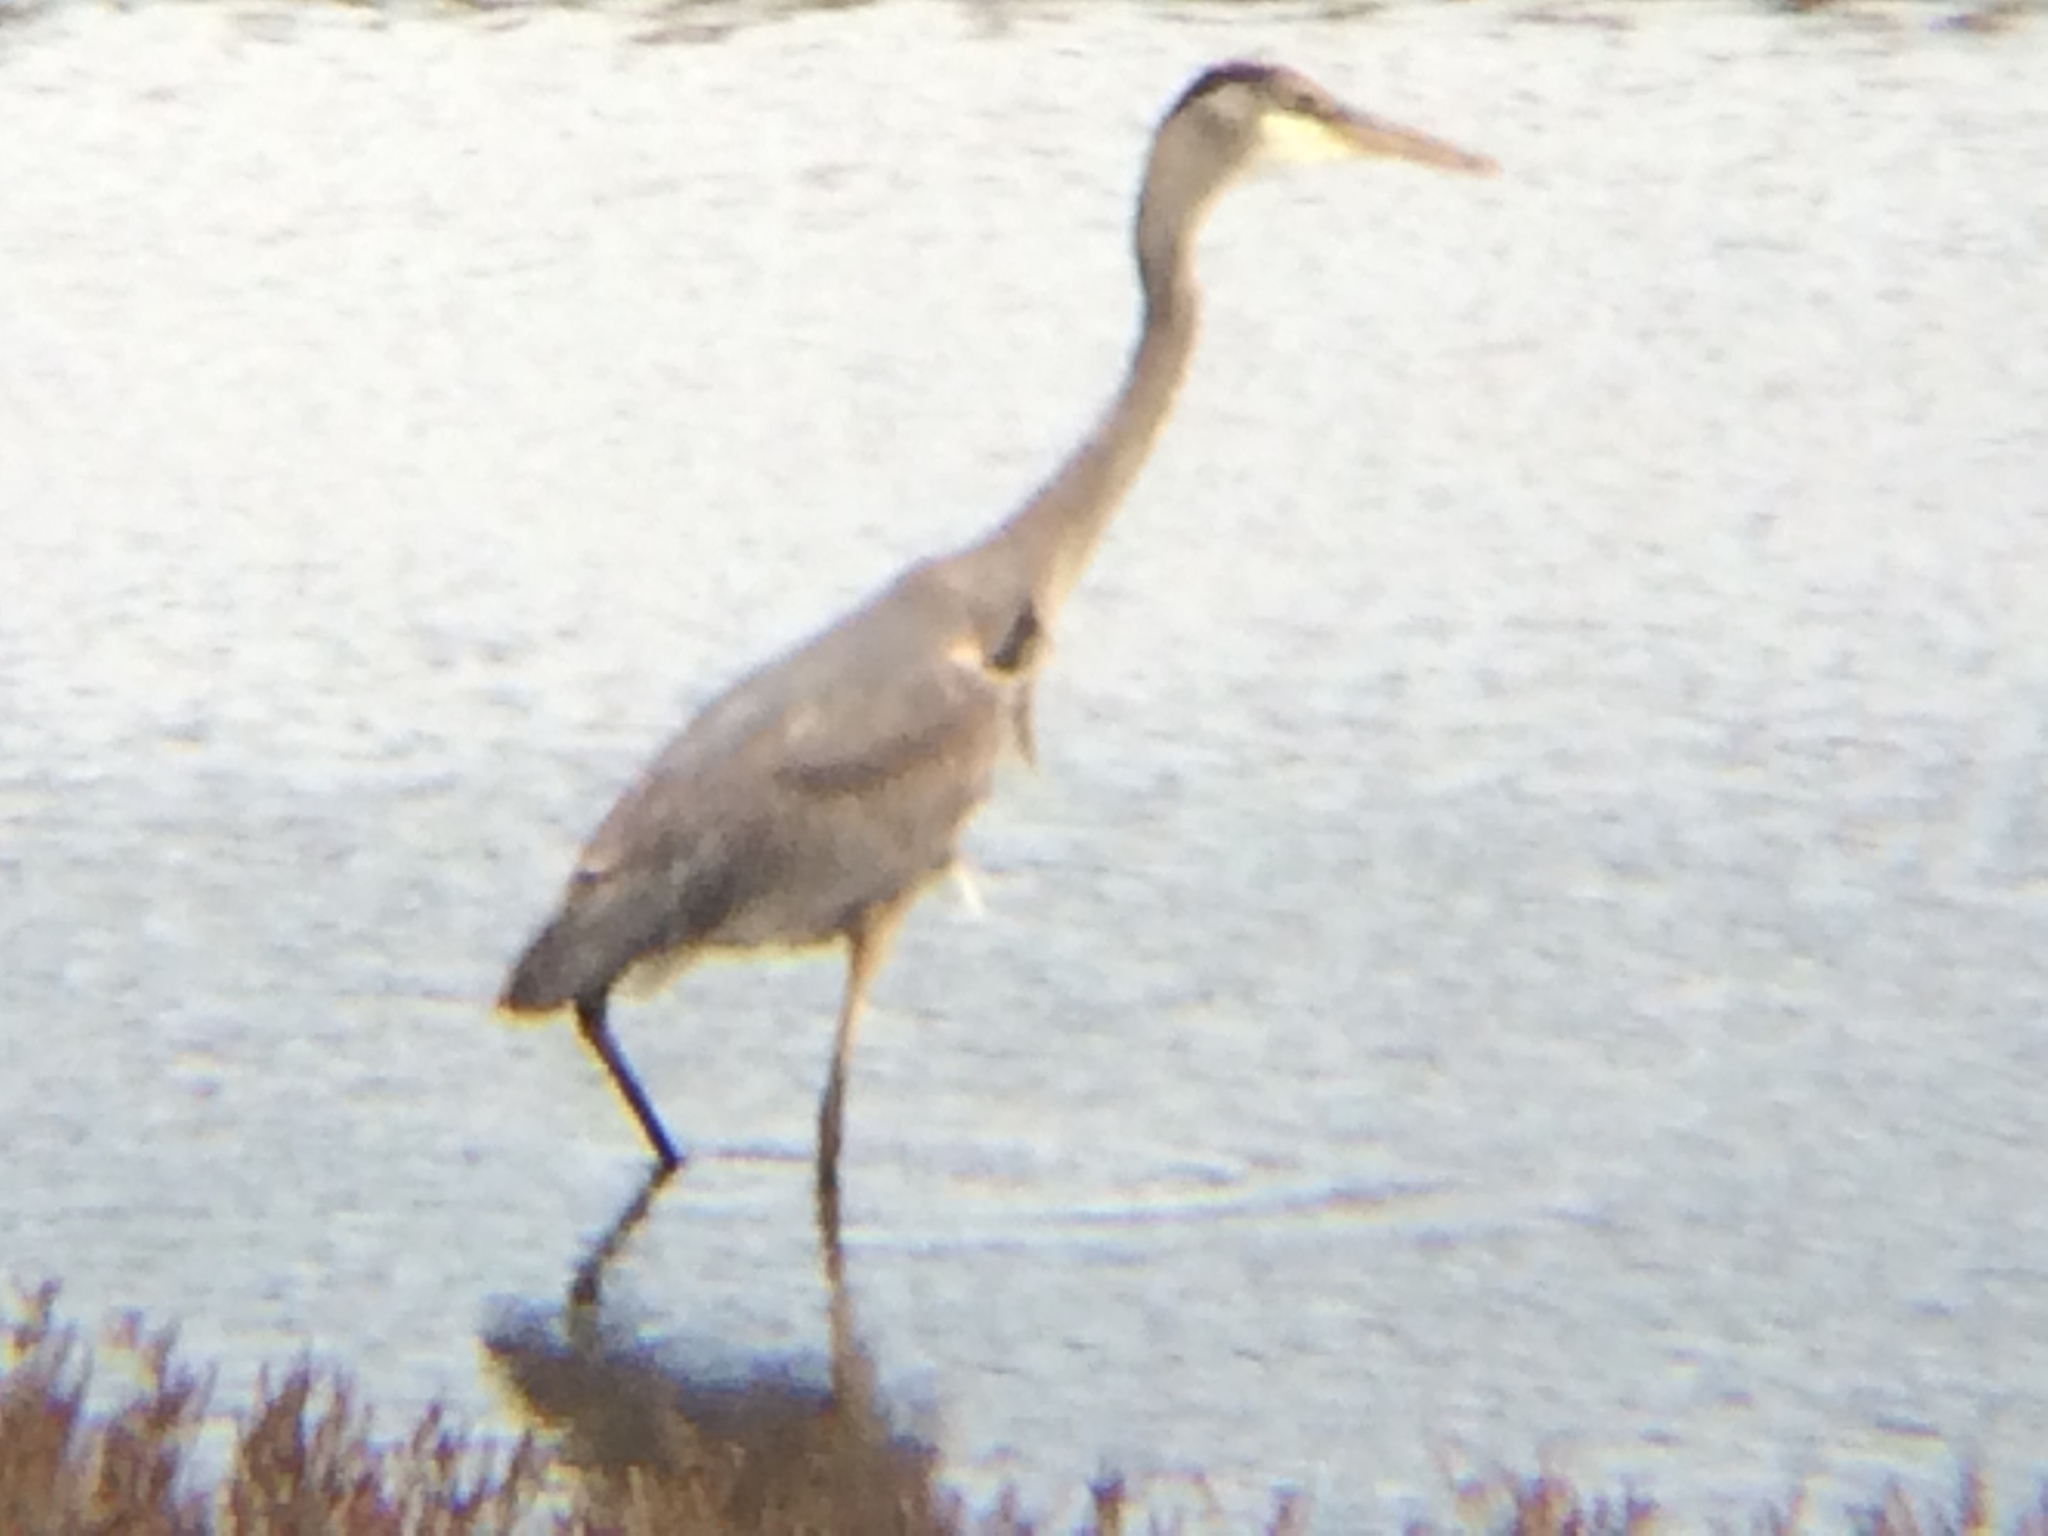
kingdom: Animalia
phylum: Chordata
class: Aves
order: Pelecaniformes
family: Ardeidae
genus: Ardea
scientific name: Ardea herodias
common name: Great blue heron
